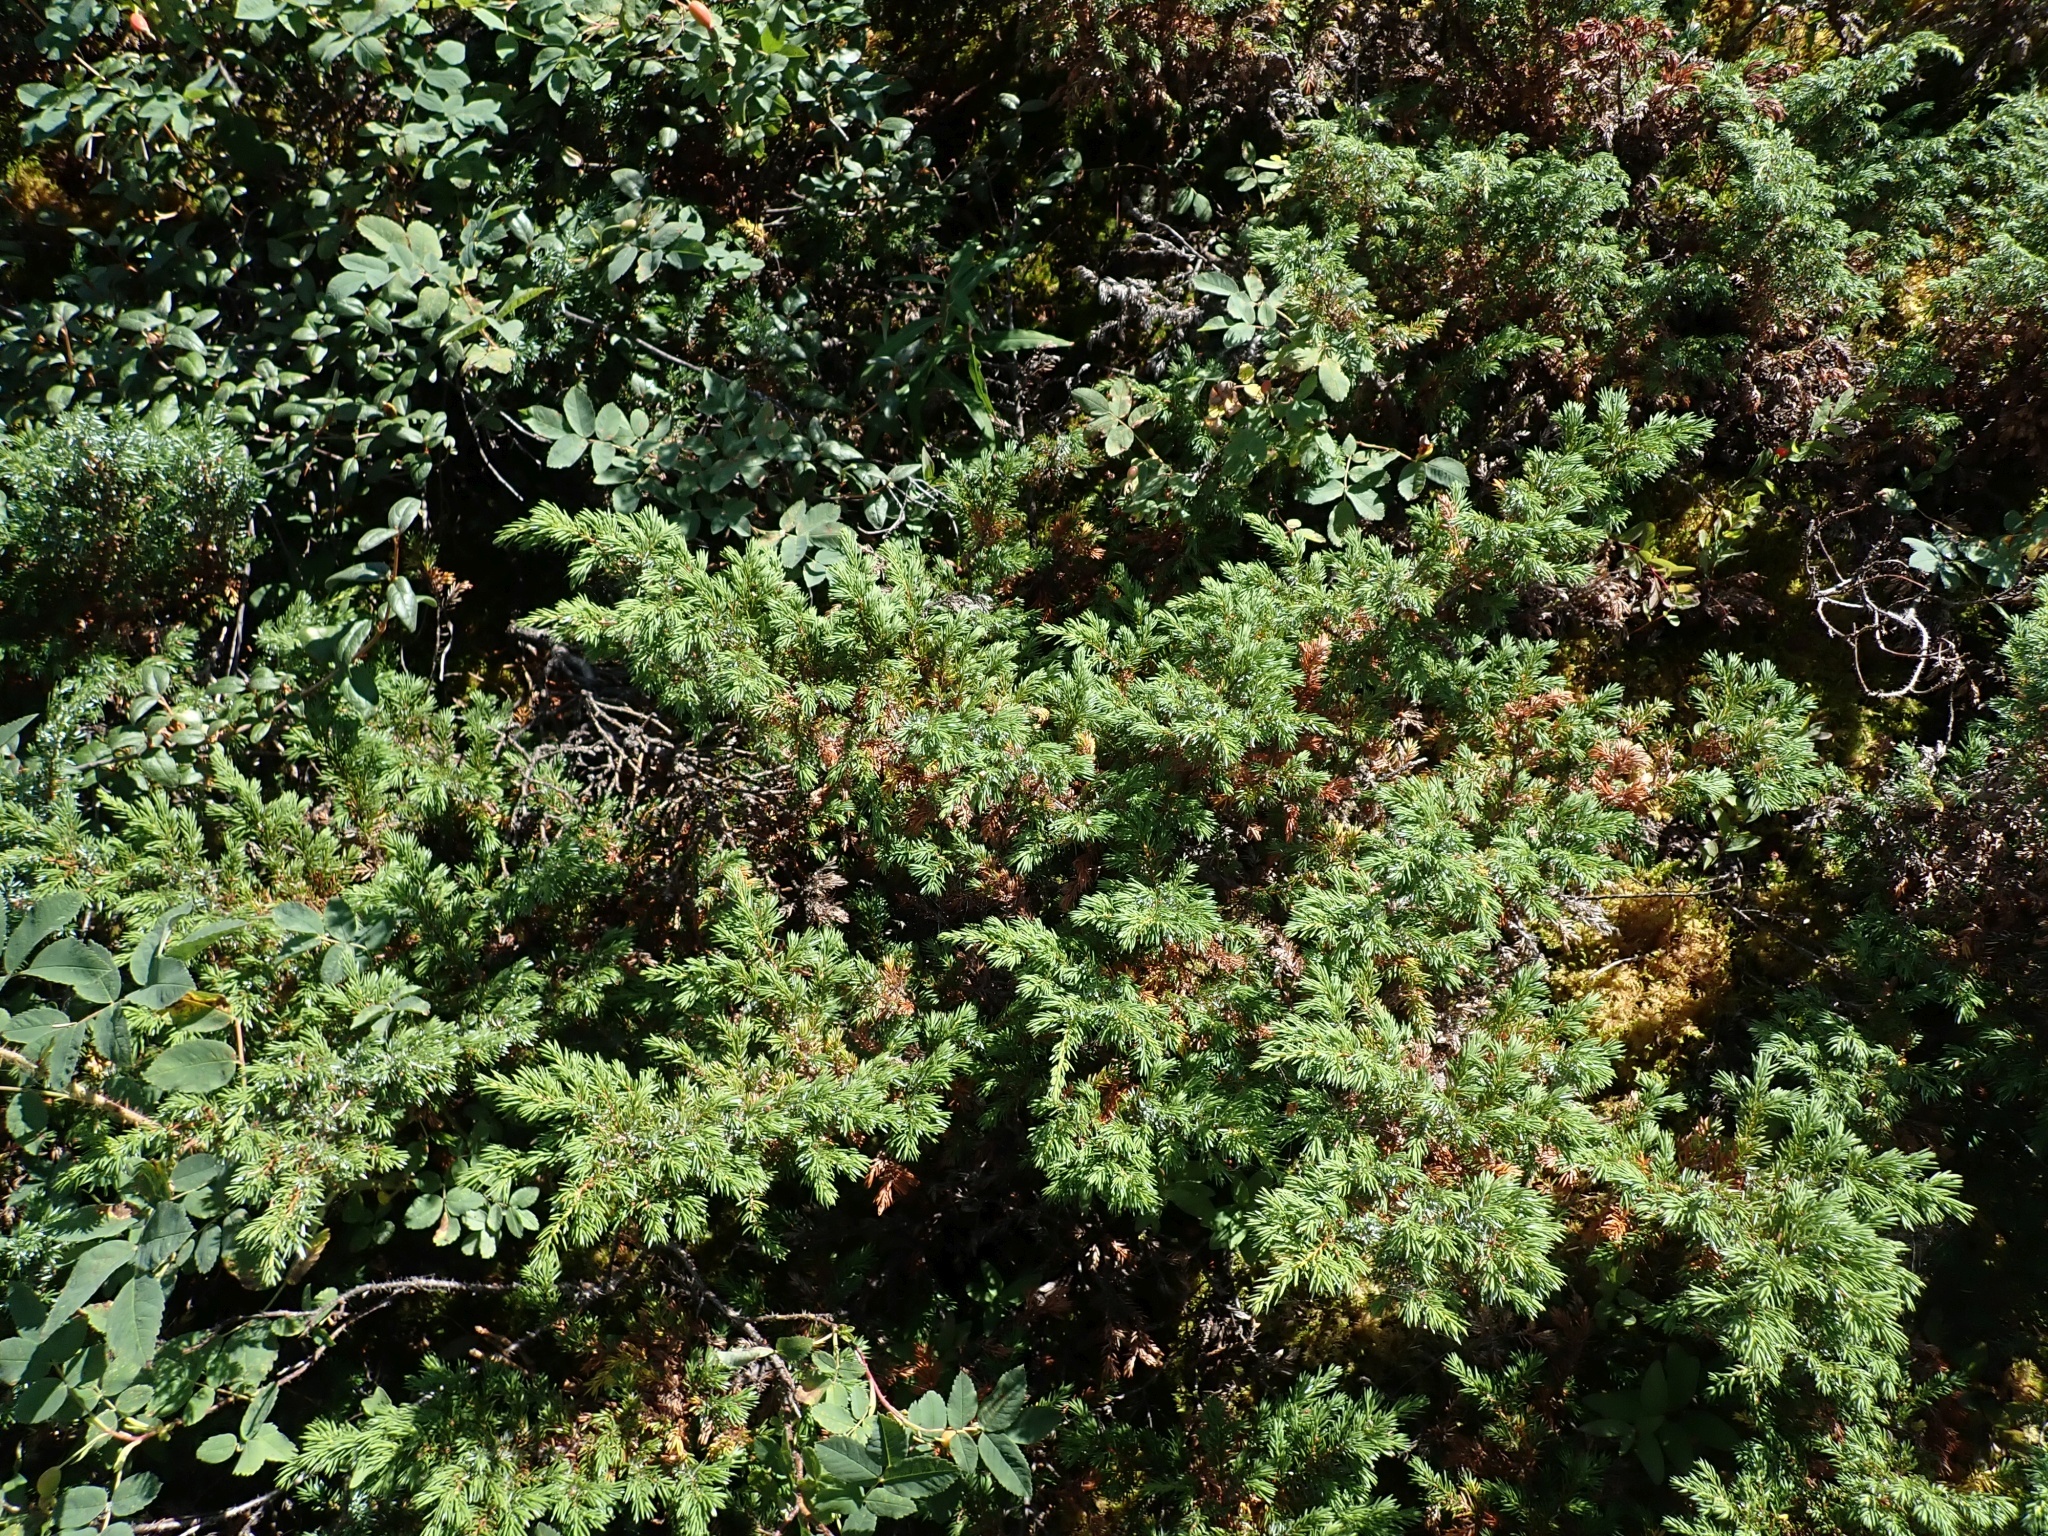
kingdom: Plantae
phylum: Tracheophyta
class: Pinopsida
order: Pinales
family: Cupressaceae
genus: Juniperus
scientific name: Juniperus communis
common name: Common juniper
